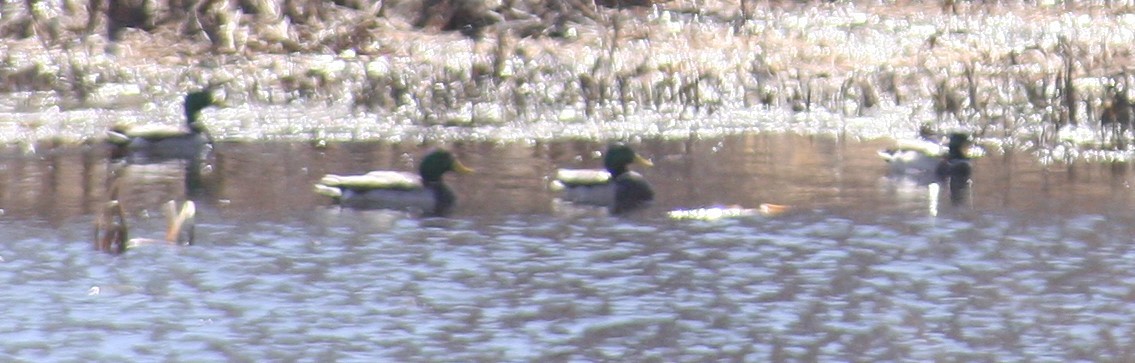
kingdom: Animalia
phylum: Chordata
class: Aves
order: Anseriformes
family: Anatidae
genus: Anas
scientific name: Anas platyrhynchos
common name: Mallard
